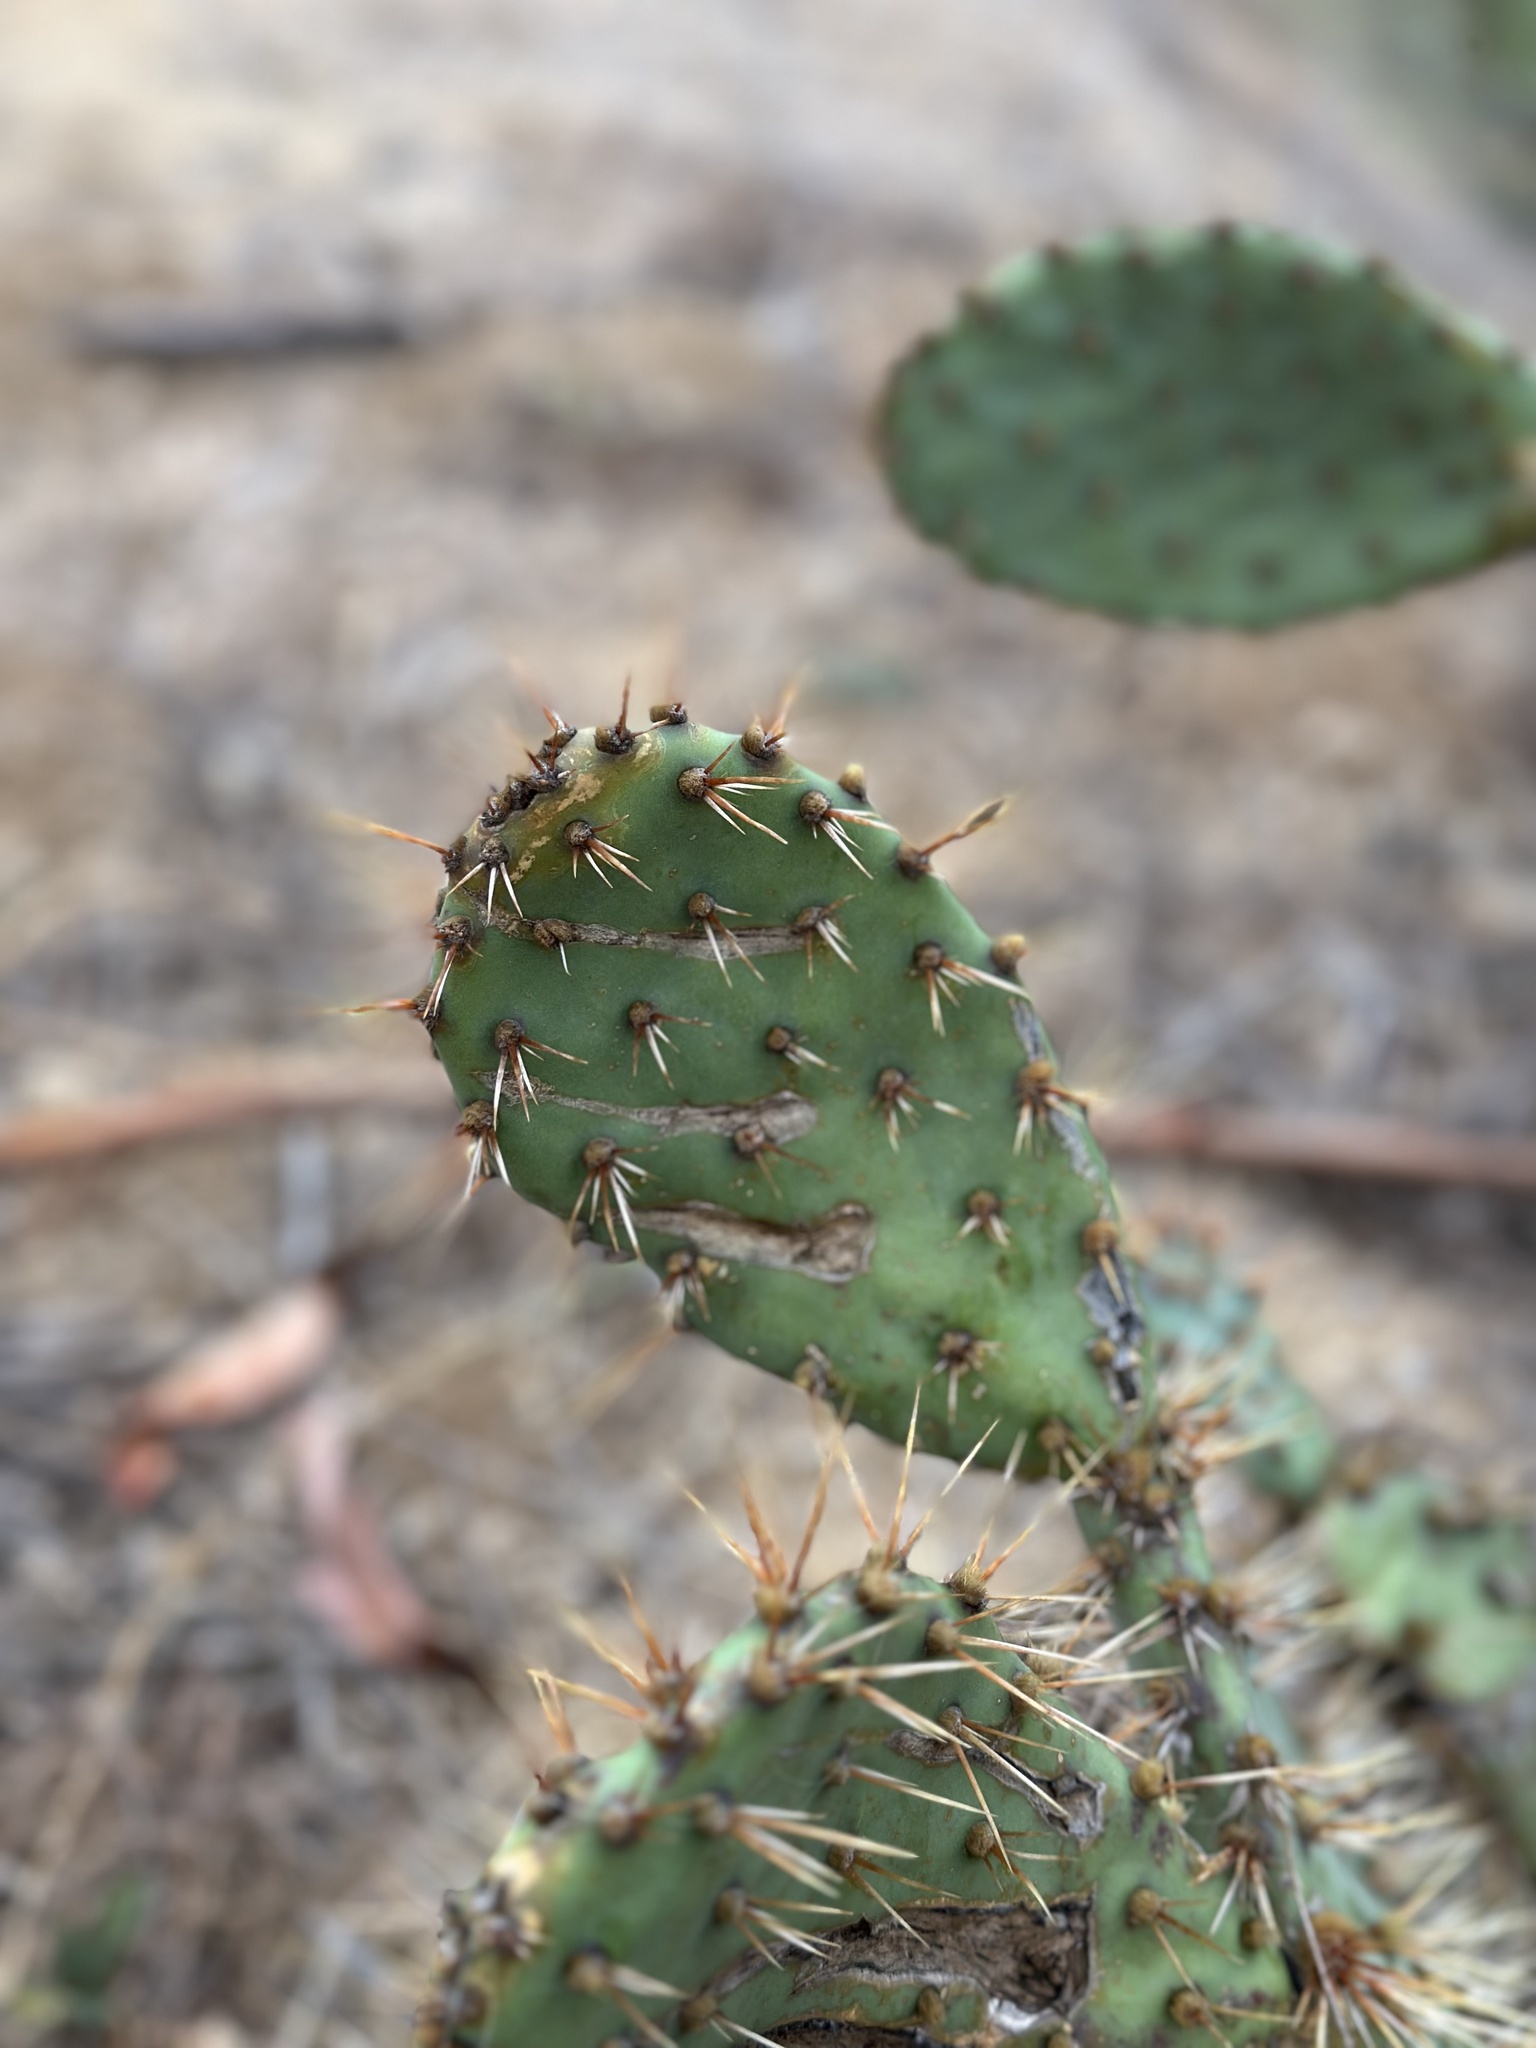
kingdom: Plantae
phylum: Tracheophyta
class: Magnoliopsida
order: Caryophyllales
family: Cactaceae
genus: Opuntia
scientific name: Opuntia oricola
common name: Chaparral prickly-pear
